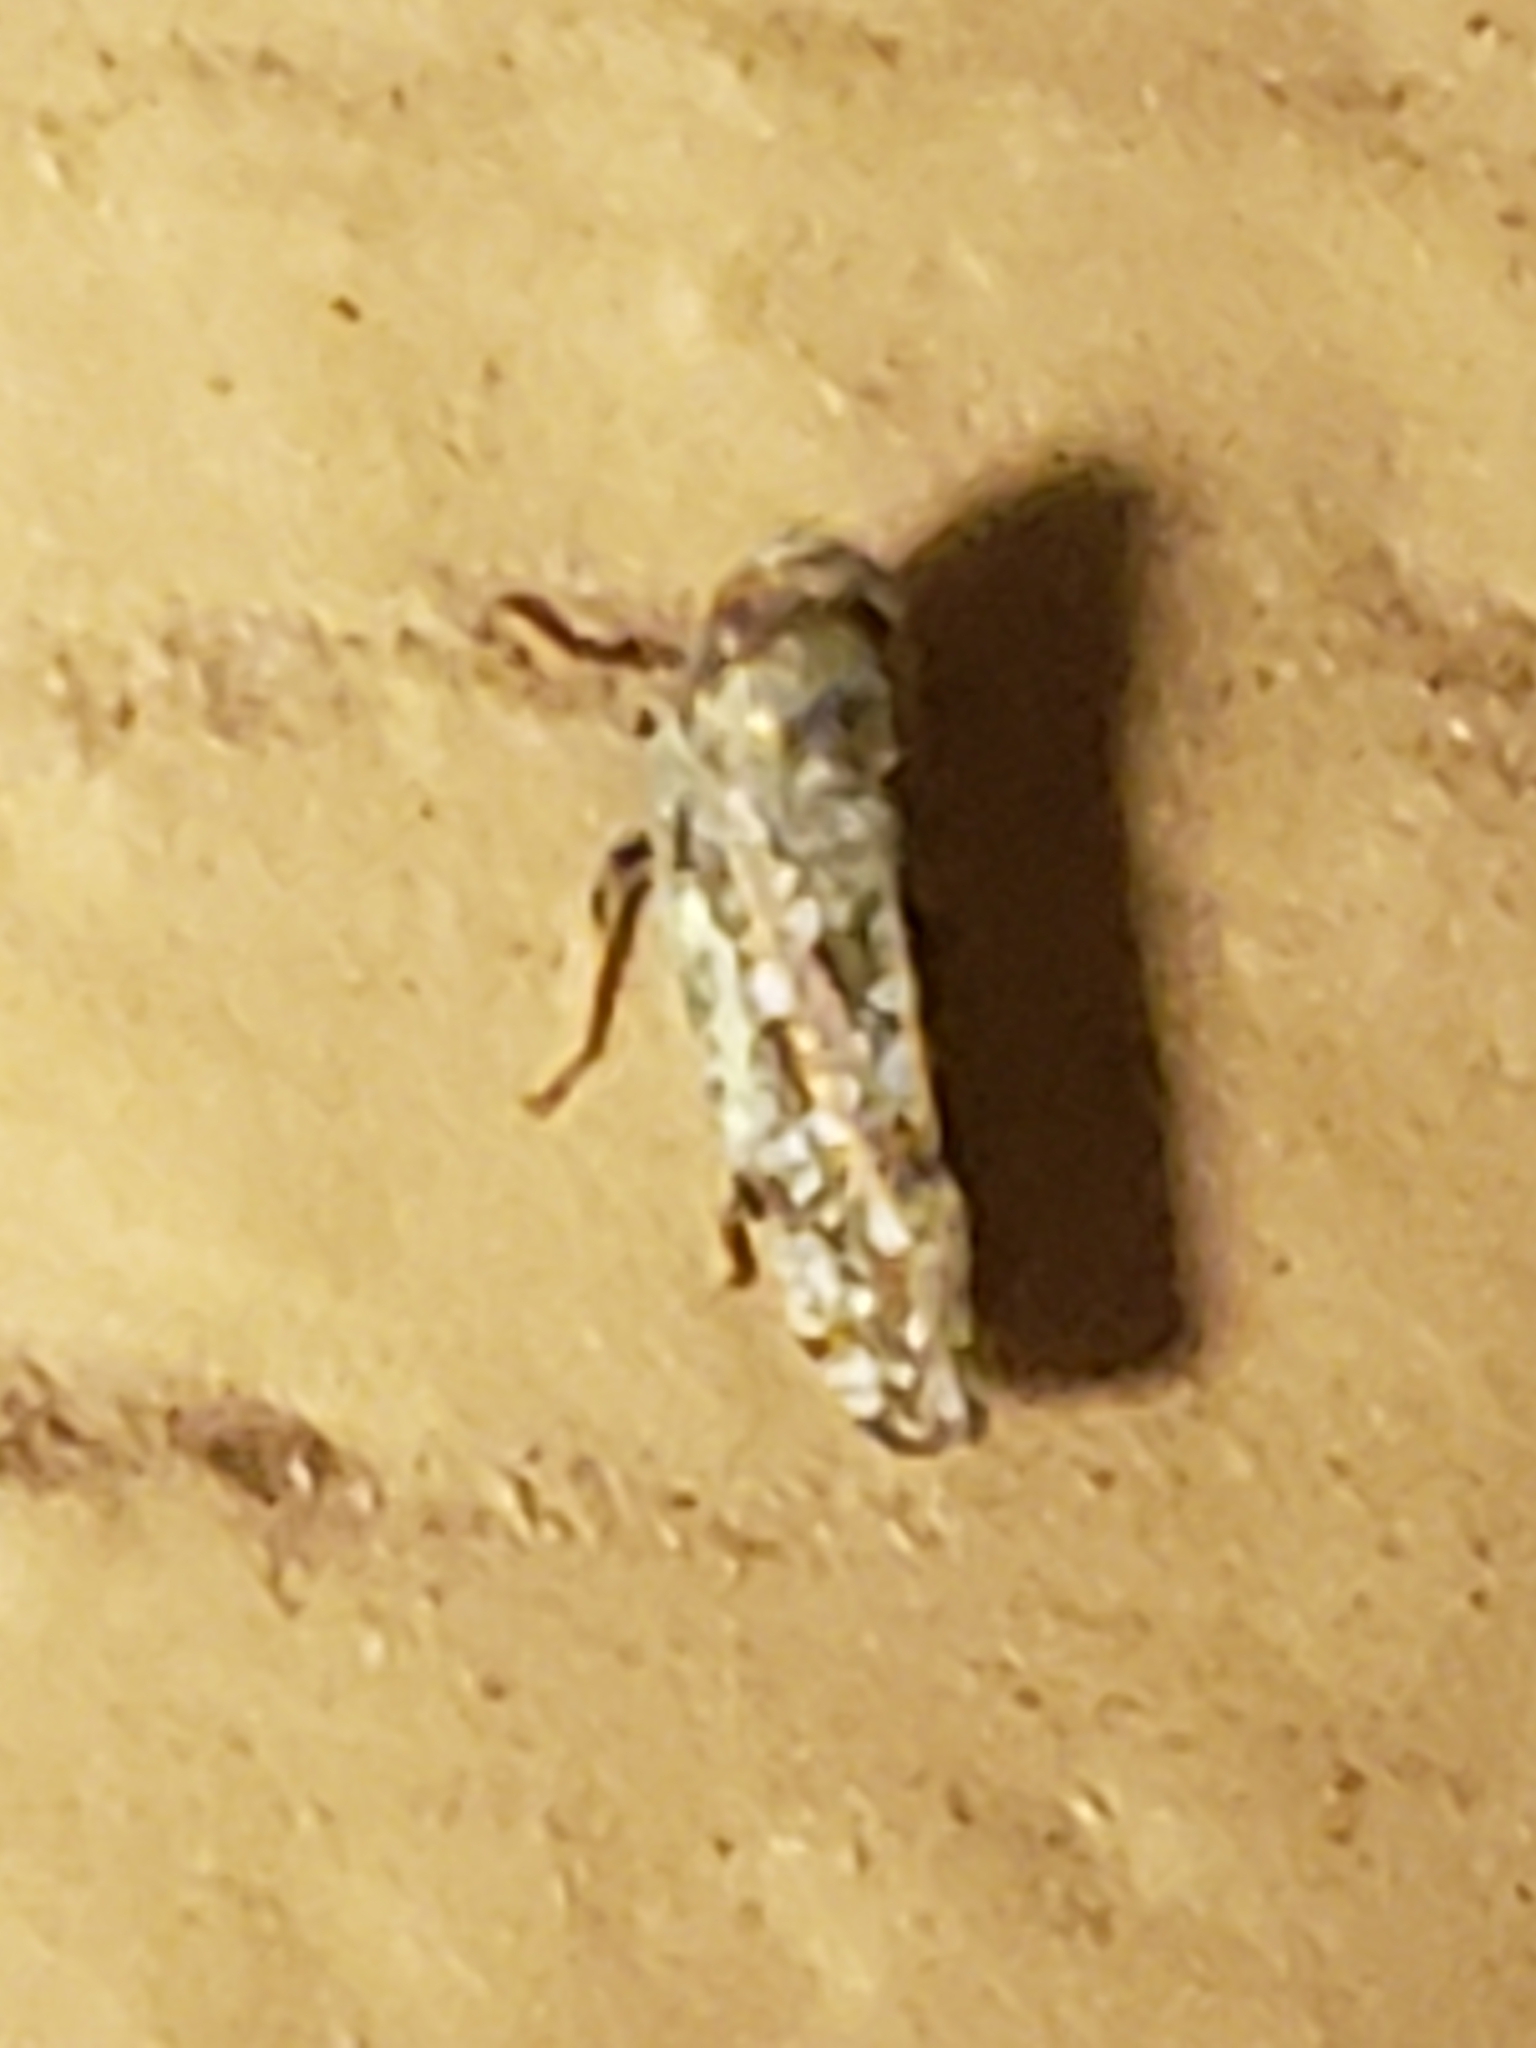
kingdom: Animalia
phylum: Arthropoda
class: Insecta
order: Hemiptera
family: Cicadellidae
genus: Orientus
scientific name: Orientus ishidae
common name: Japanese leafhopper
